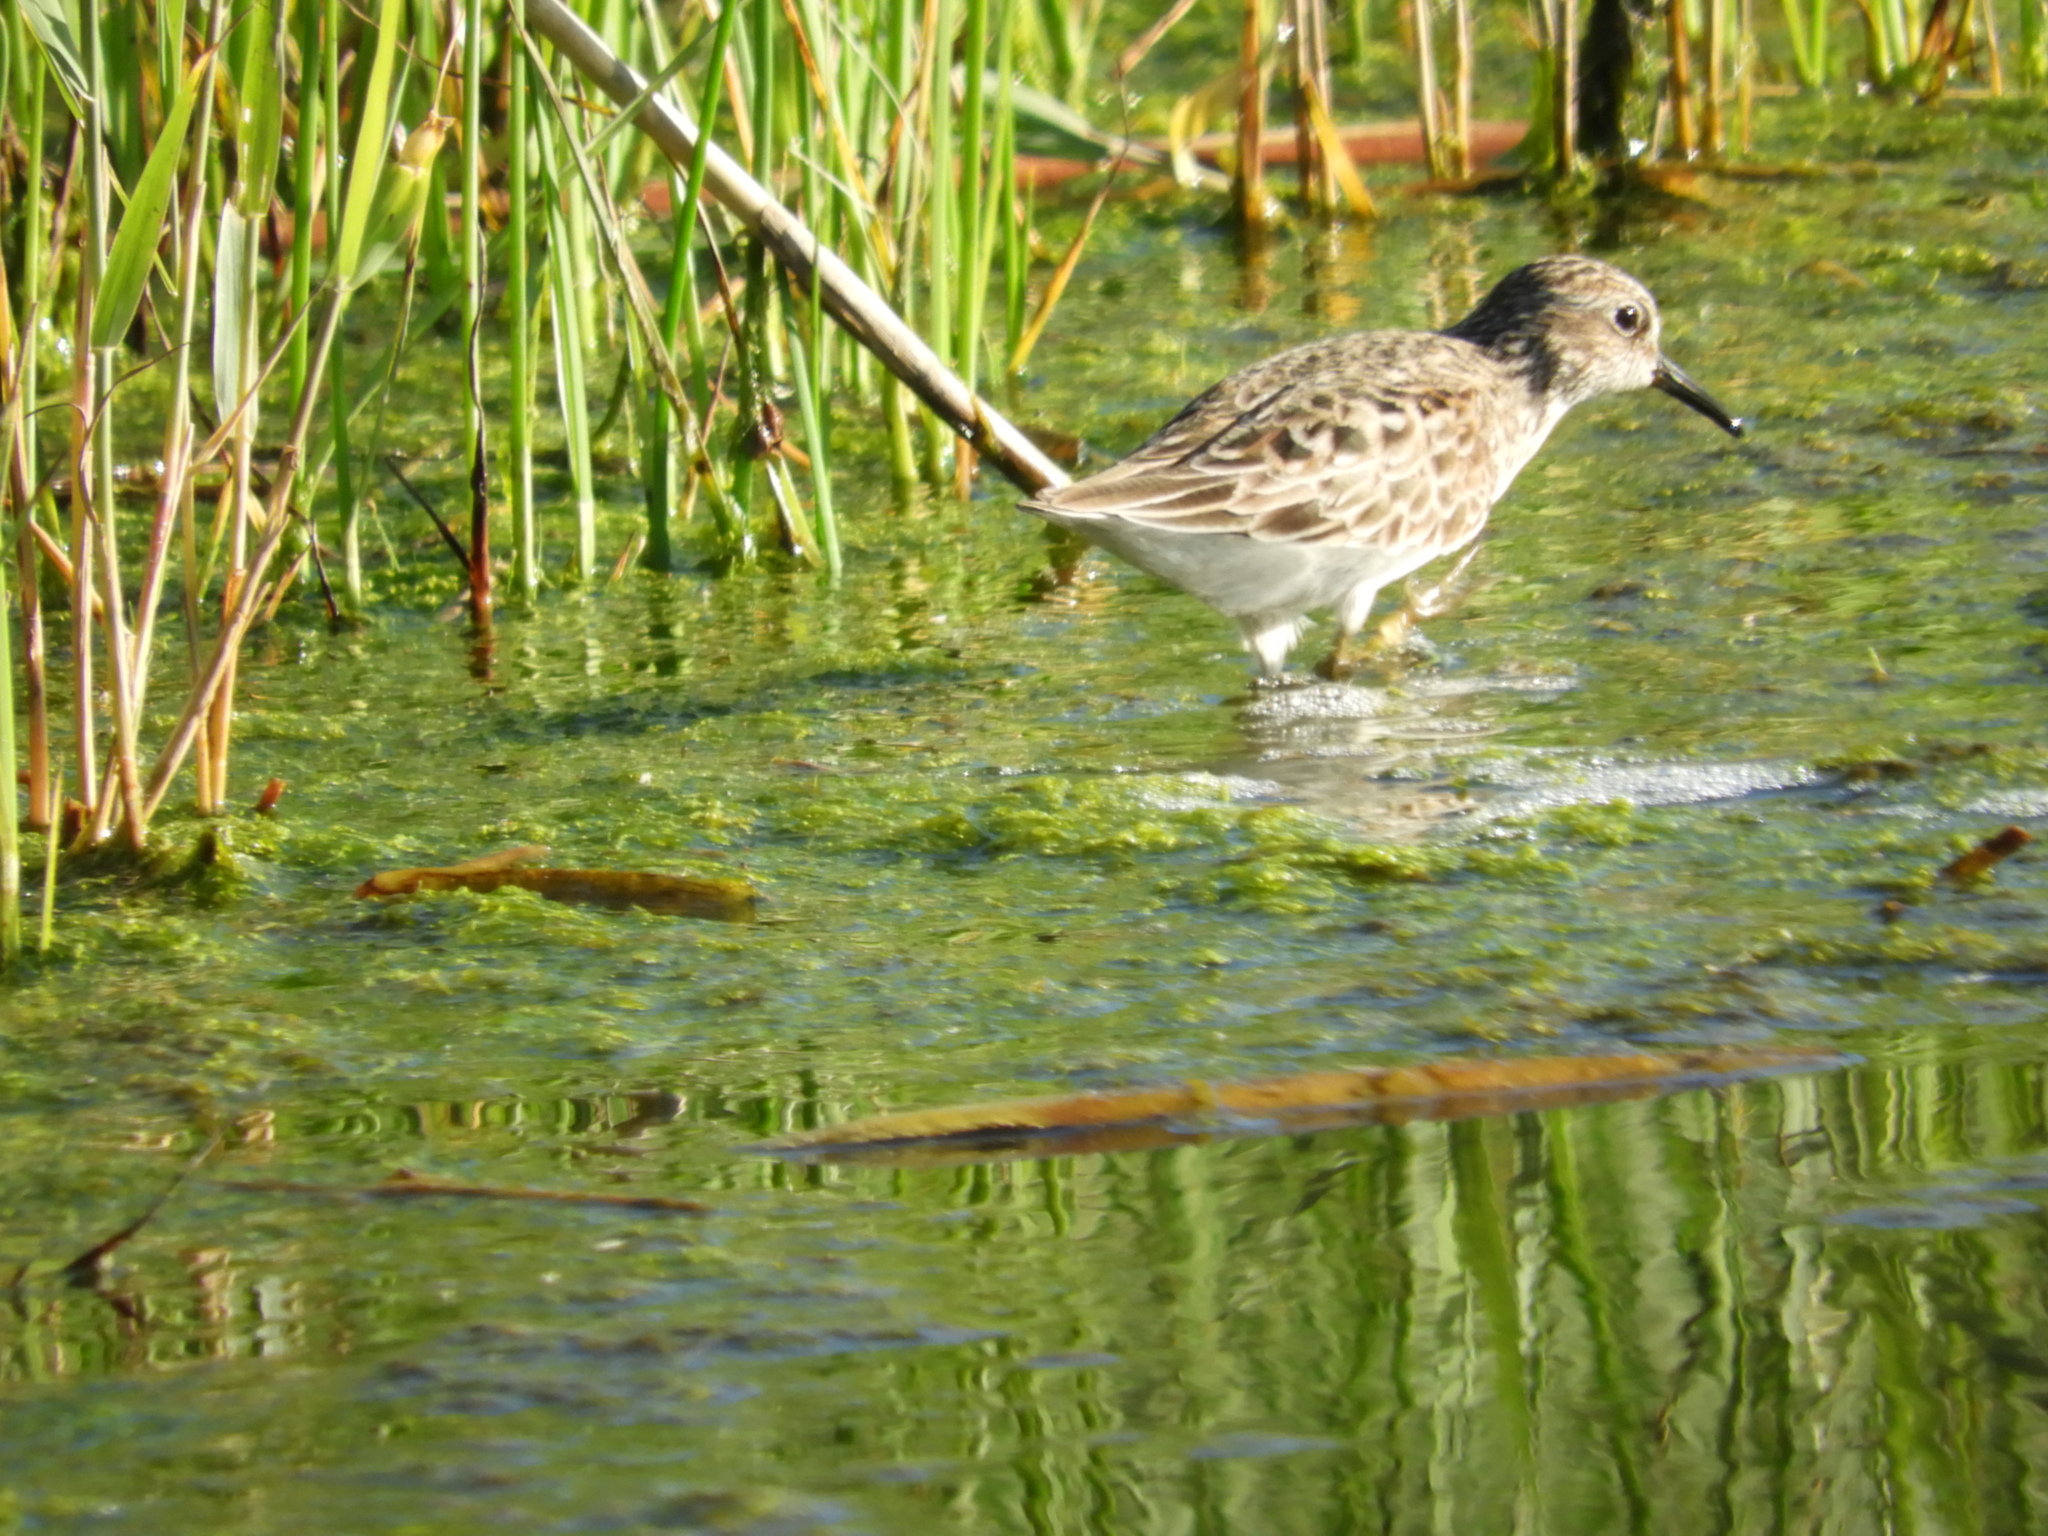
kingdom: Animalia
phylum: Chordata
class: Aves
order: Charadriiformes
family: Scolopacidae
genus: Calidris
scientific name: Calidris minutilla
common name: Least sandpiper
